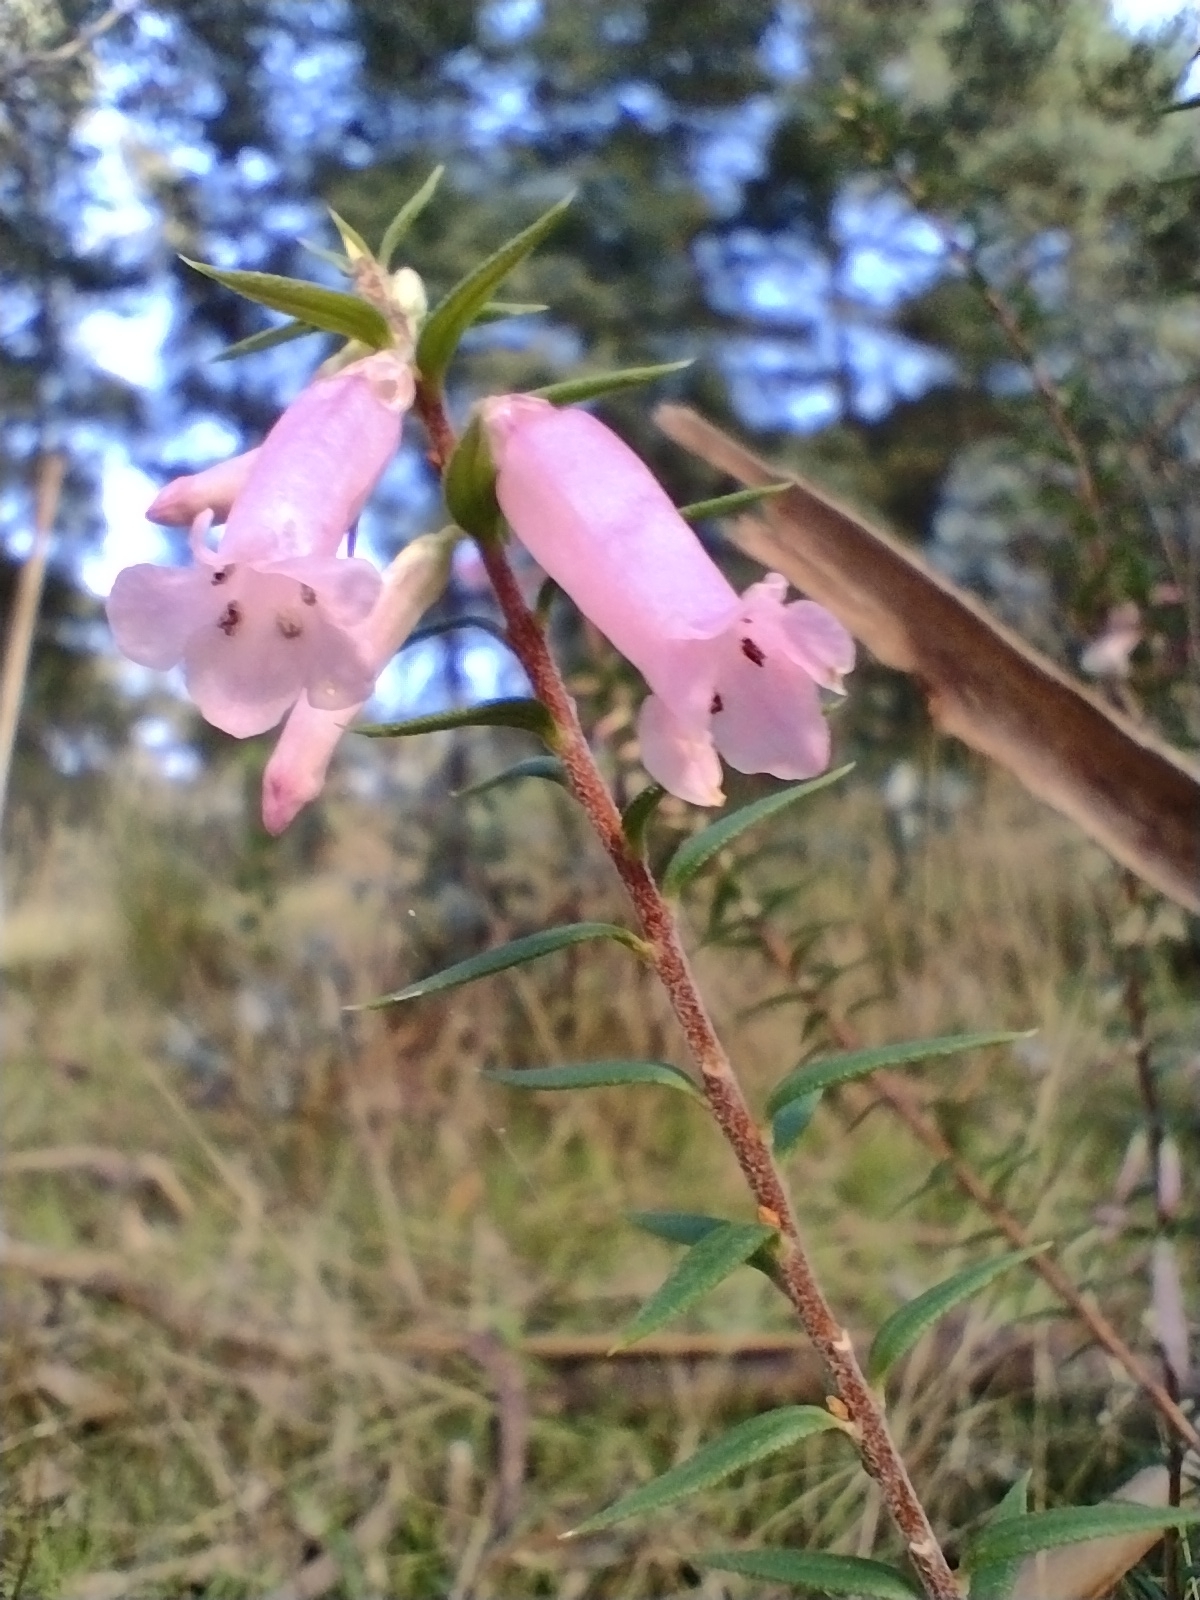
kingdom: Plantae
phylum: Tracheophyta
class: Magnoliopsida
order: Ericales
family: Ericaceae
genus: Epacris
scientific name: Epacris impressa
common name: Common-heath
